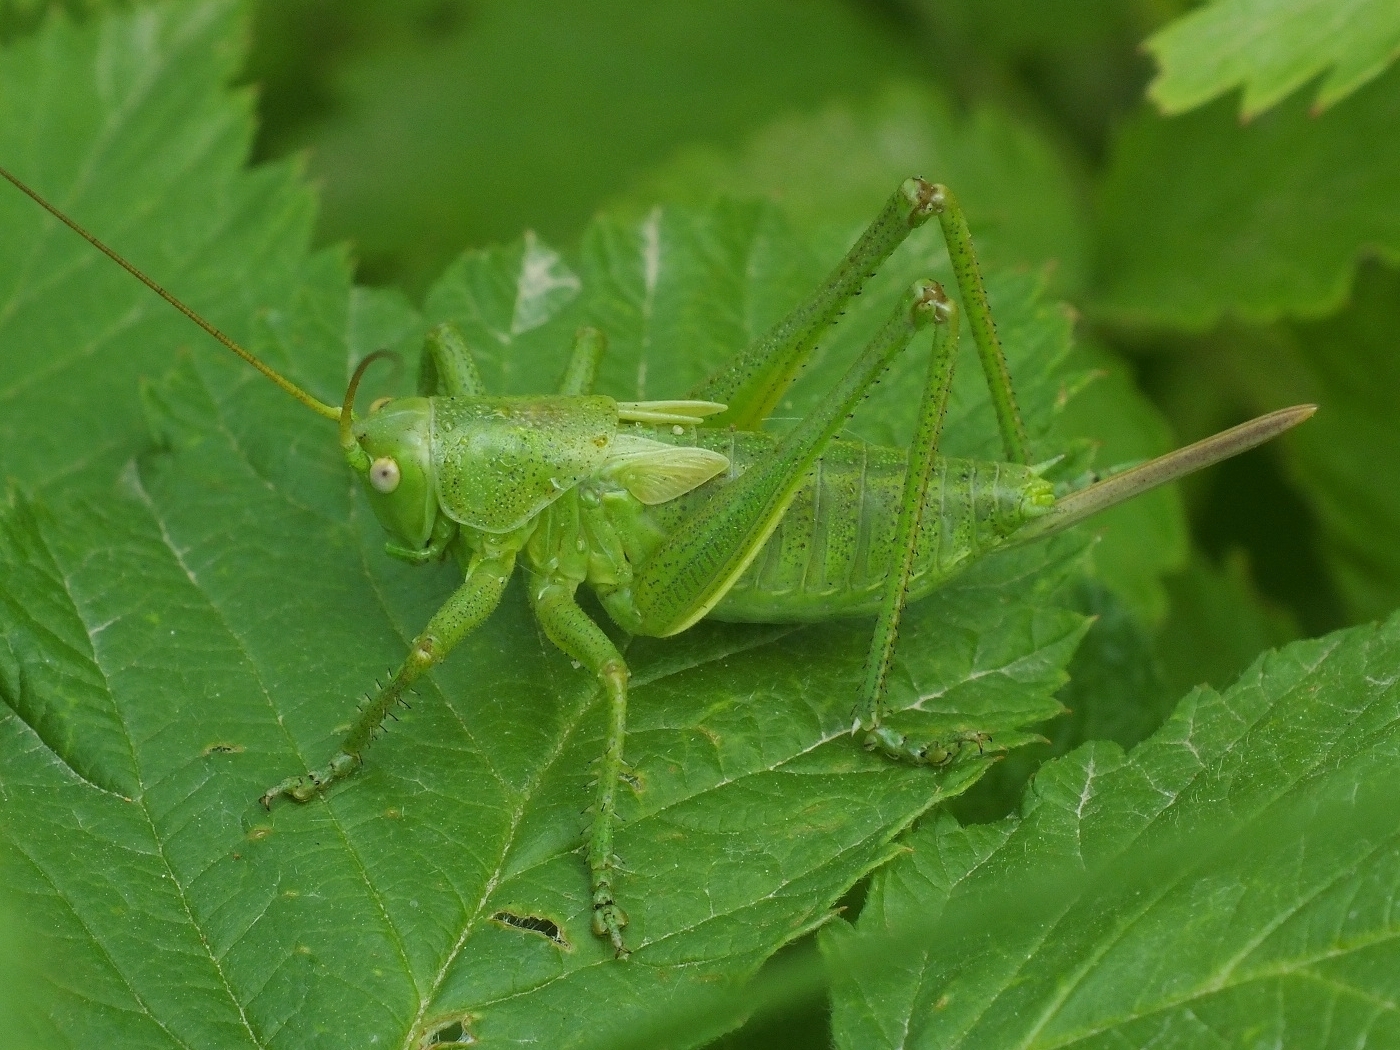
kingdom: Animalia
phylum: Arthropoda
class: Insecta
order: Orthoptera
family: Tettigoniidae
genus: Tettigonia
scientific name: Tettigonia caudata
